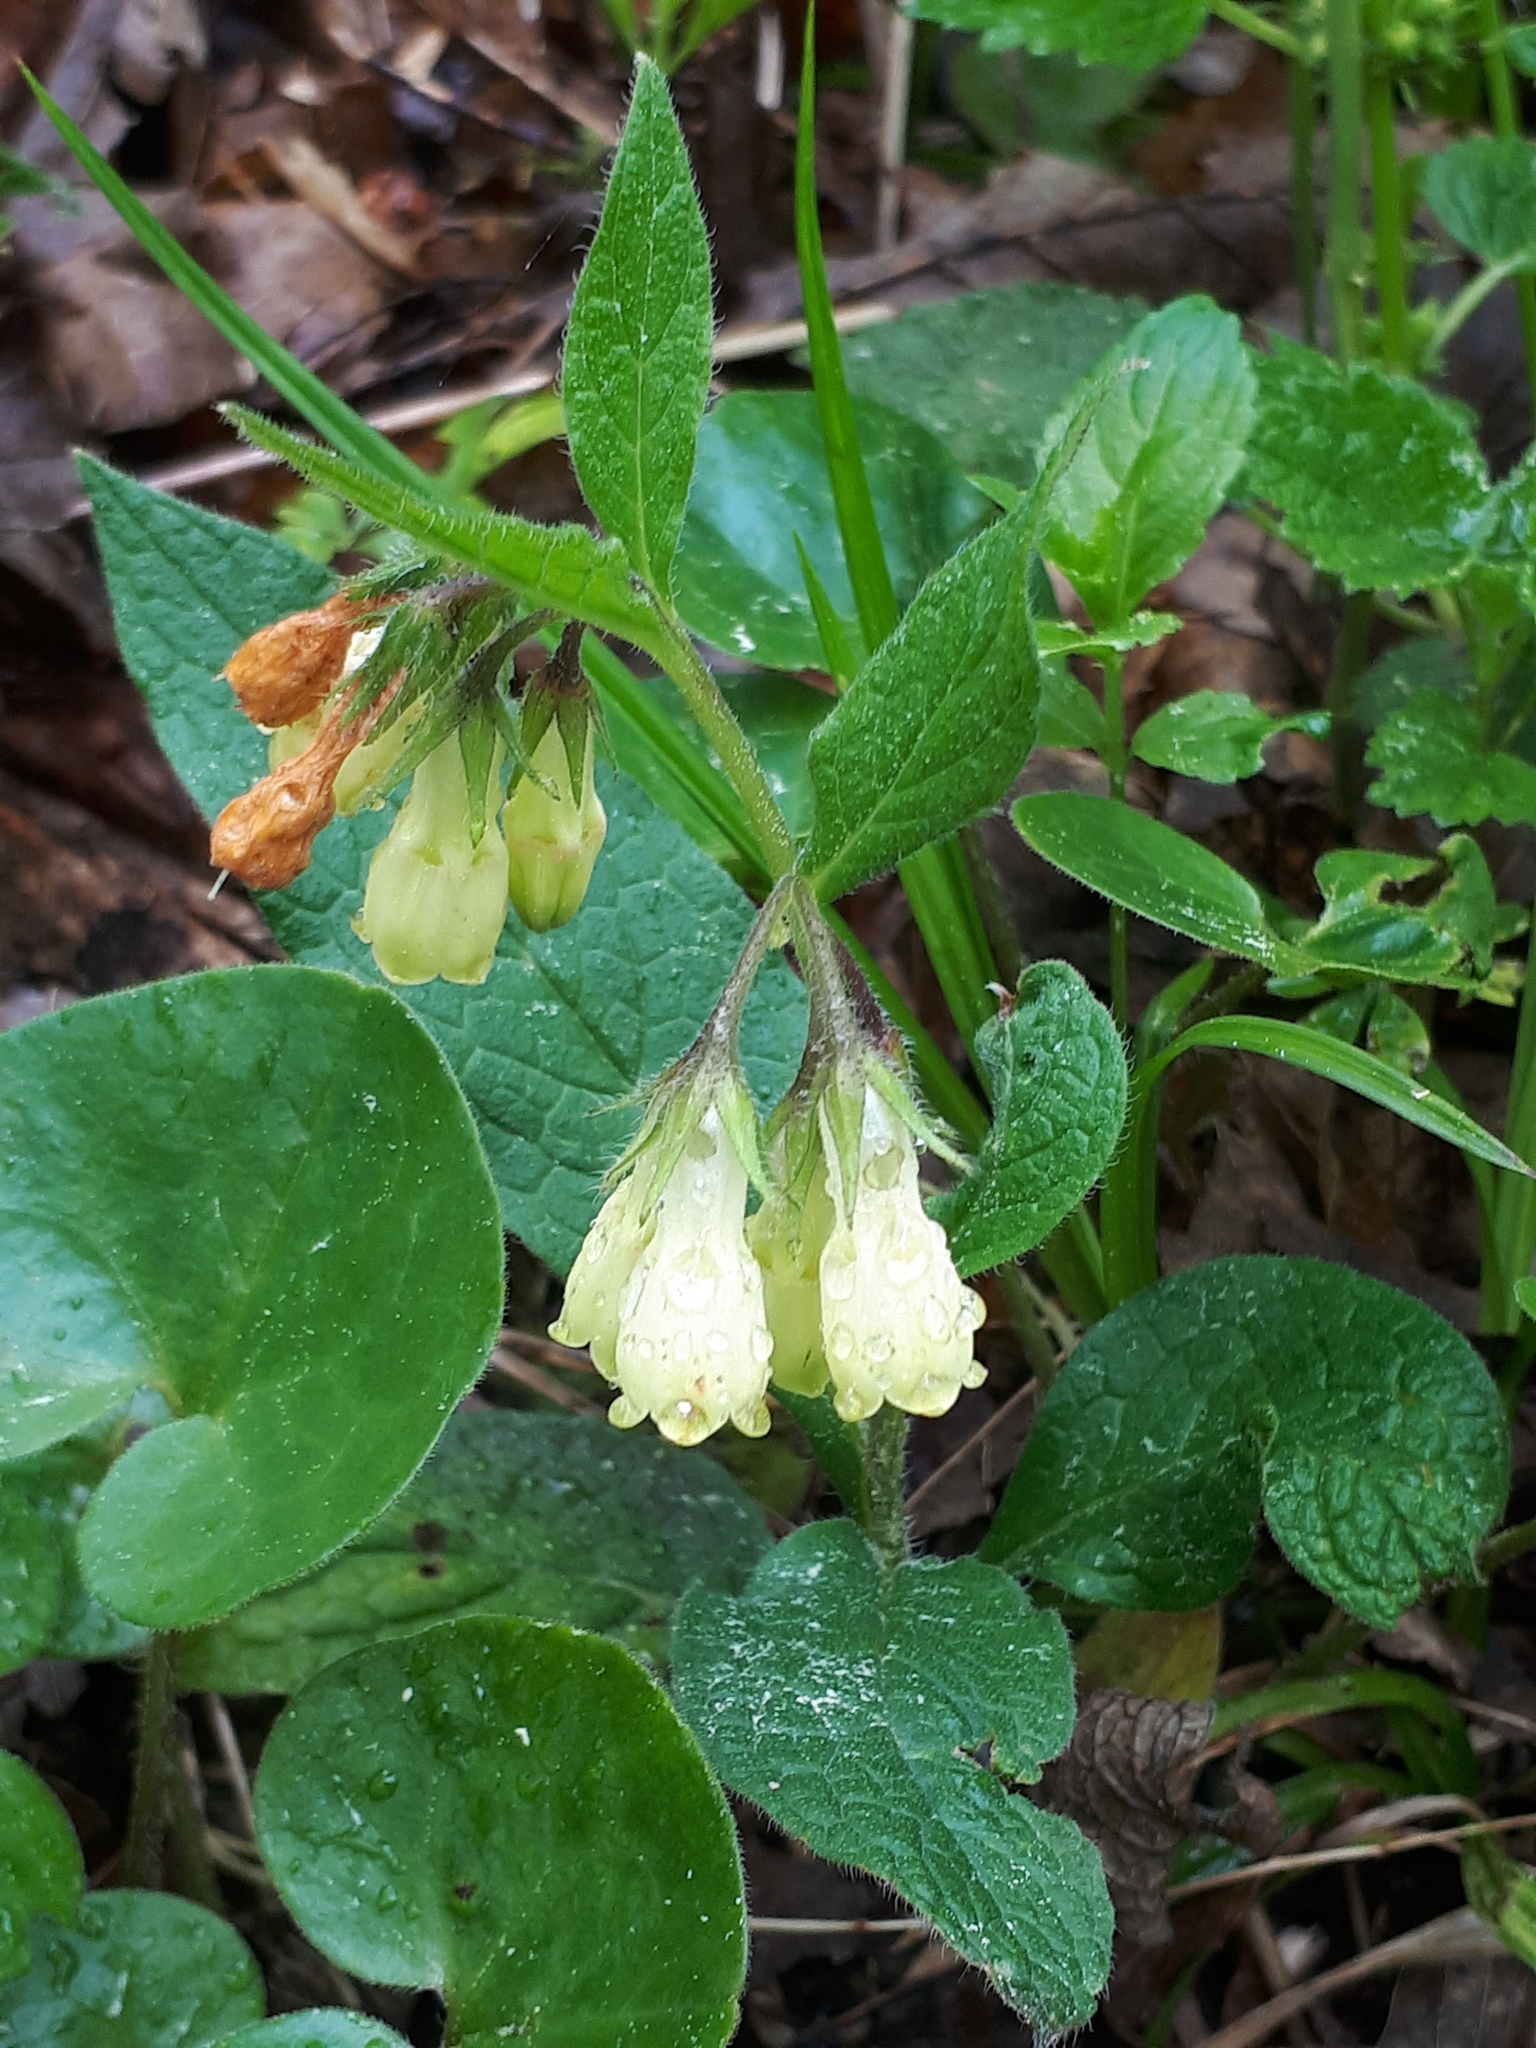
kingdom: Plantae
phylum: Tracheophyta
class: Magnoliopsida
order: Boraginales
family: Boraginaceae
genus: Symphytum
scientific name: Symphytum tuberosum
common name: Tuberous comfrey
